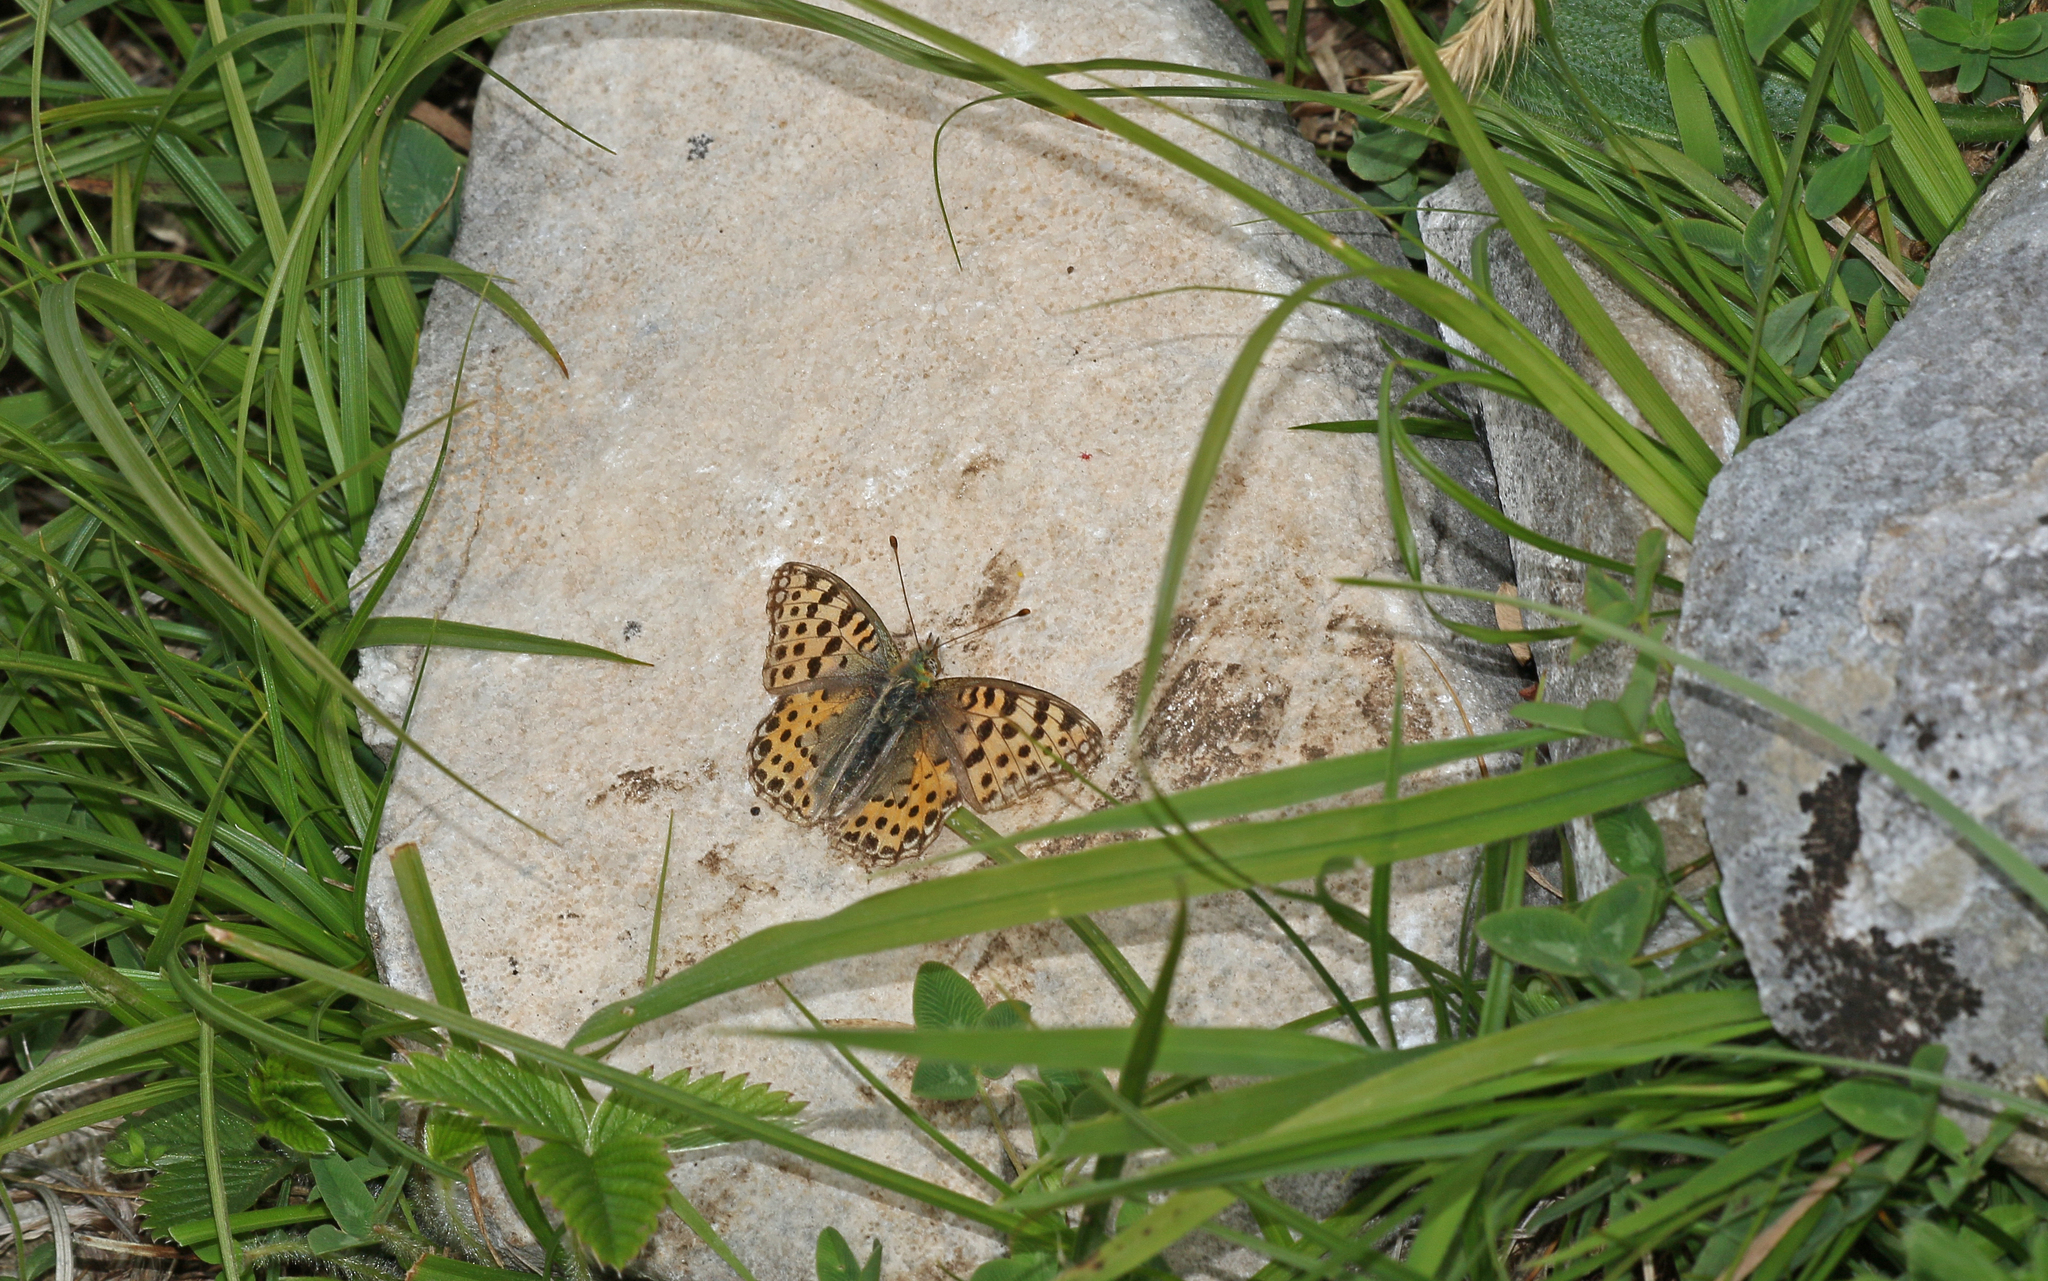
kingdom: Animalia
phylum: Arthropoda
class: Insecta
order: Lepidoptera
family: Nymphalidae
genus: Issoria
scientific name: Issoria lathonia
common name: Queen of spain fritillary
